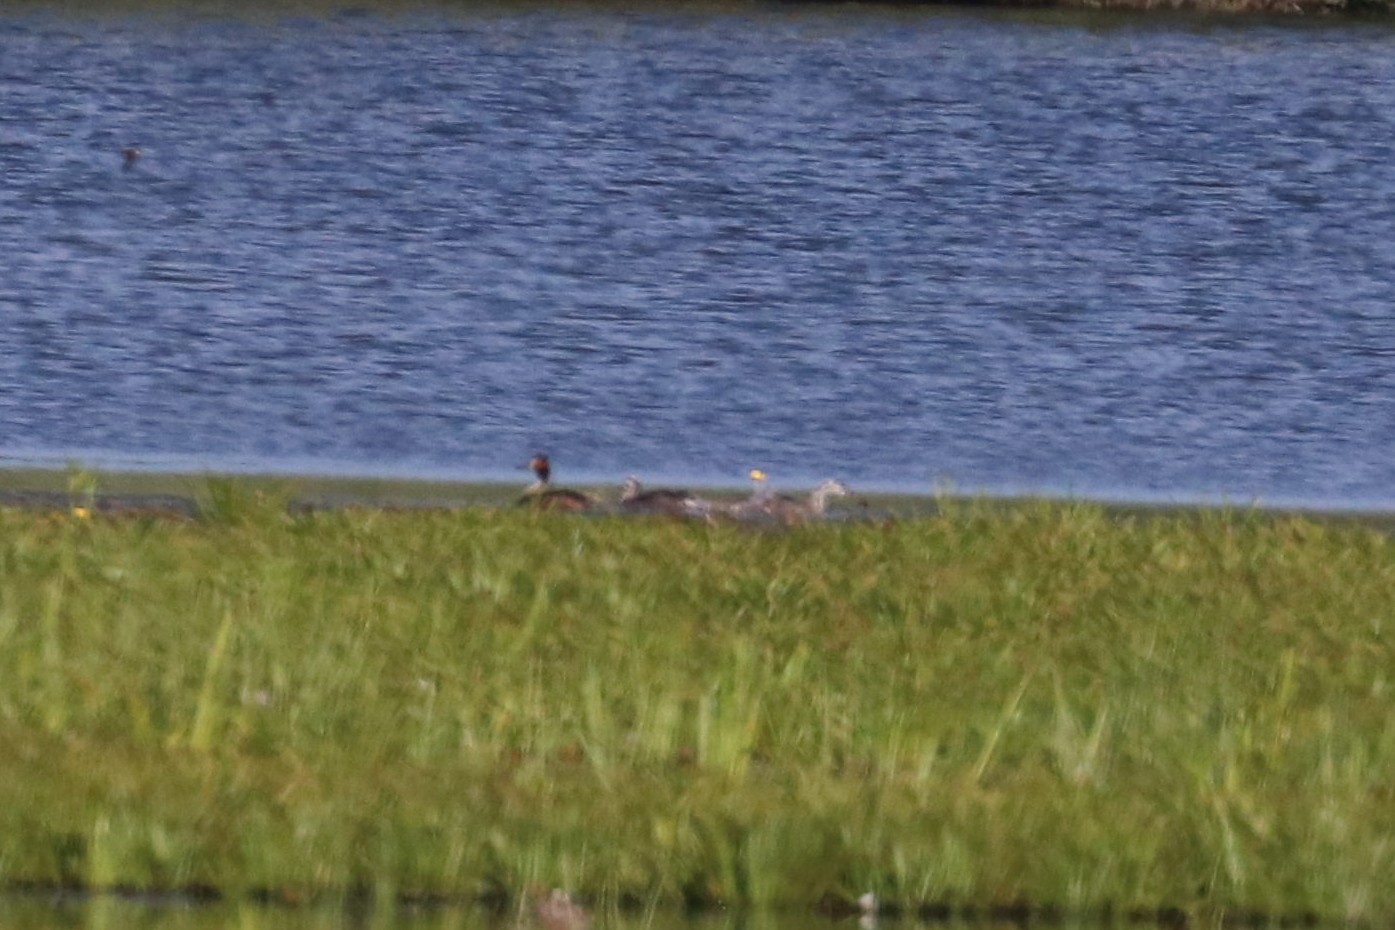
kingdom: Animalia
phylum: Chordata
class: Aves
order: Podicipediformes
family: Podicipedidae
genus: Podiceps
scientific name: Podiceps cristatus
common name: Great crested grebe
